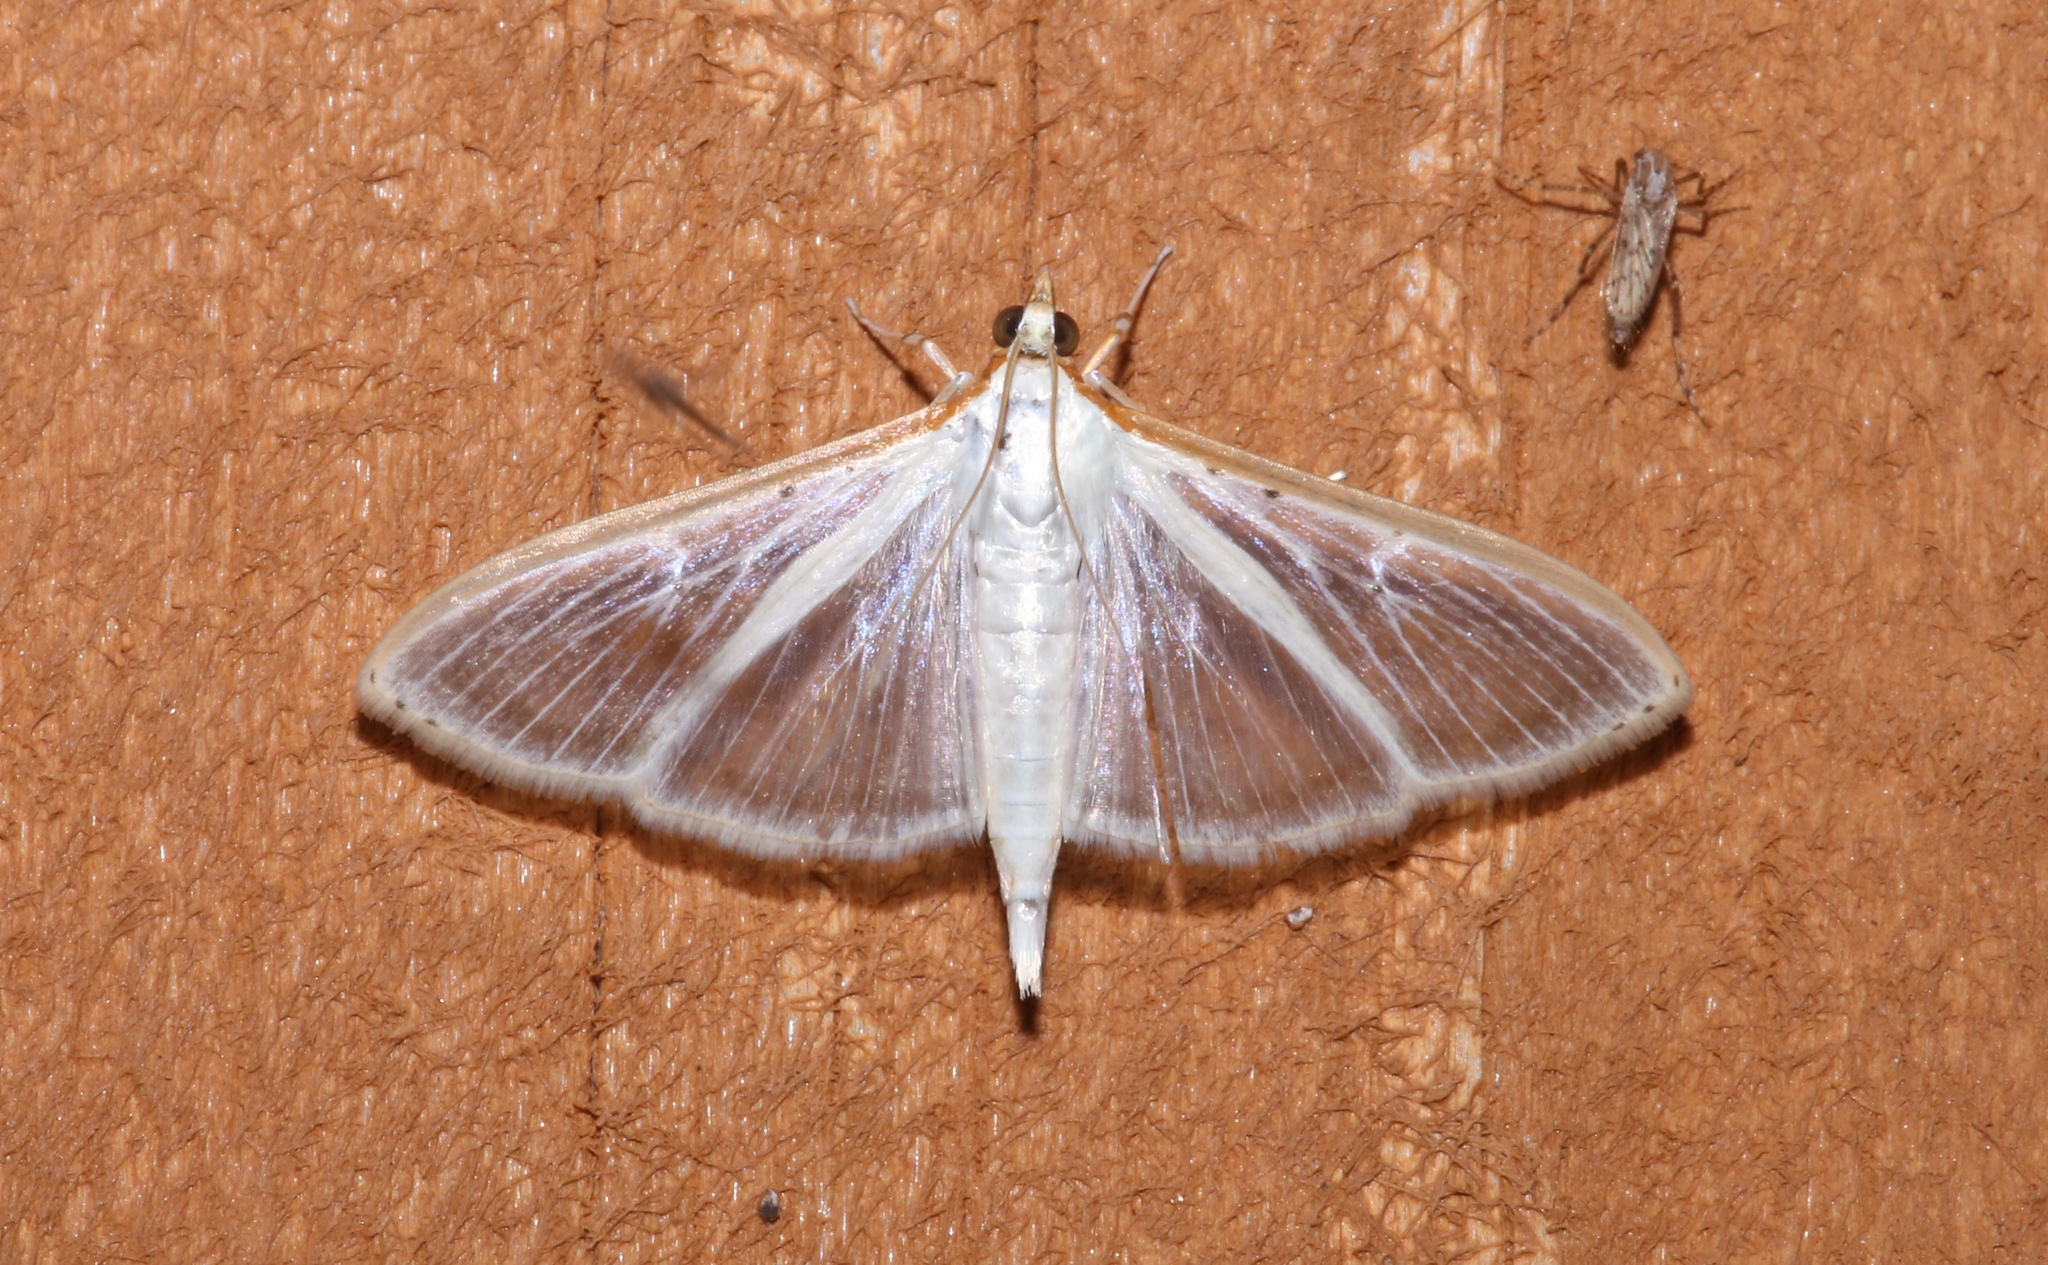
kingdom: Animalia
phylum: Arthropoda
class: Insecta
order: Lepidoptera
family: Crambidae
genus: Palpita
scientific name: Palpita quadristigmalis
